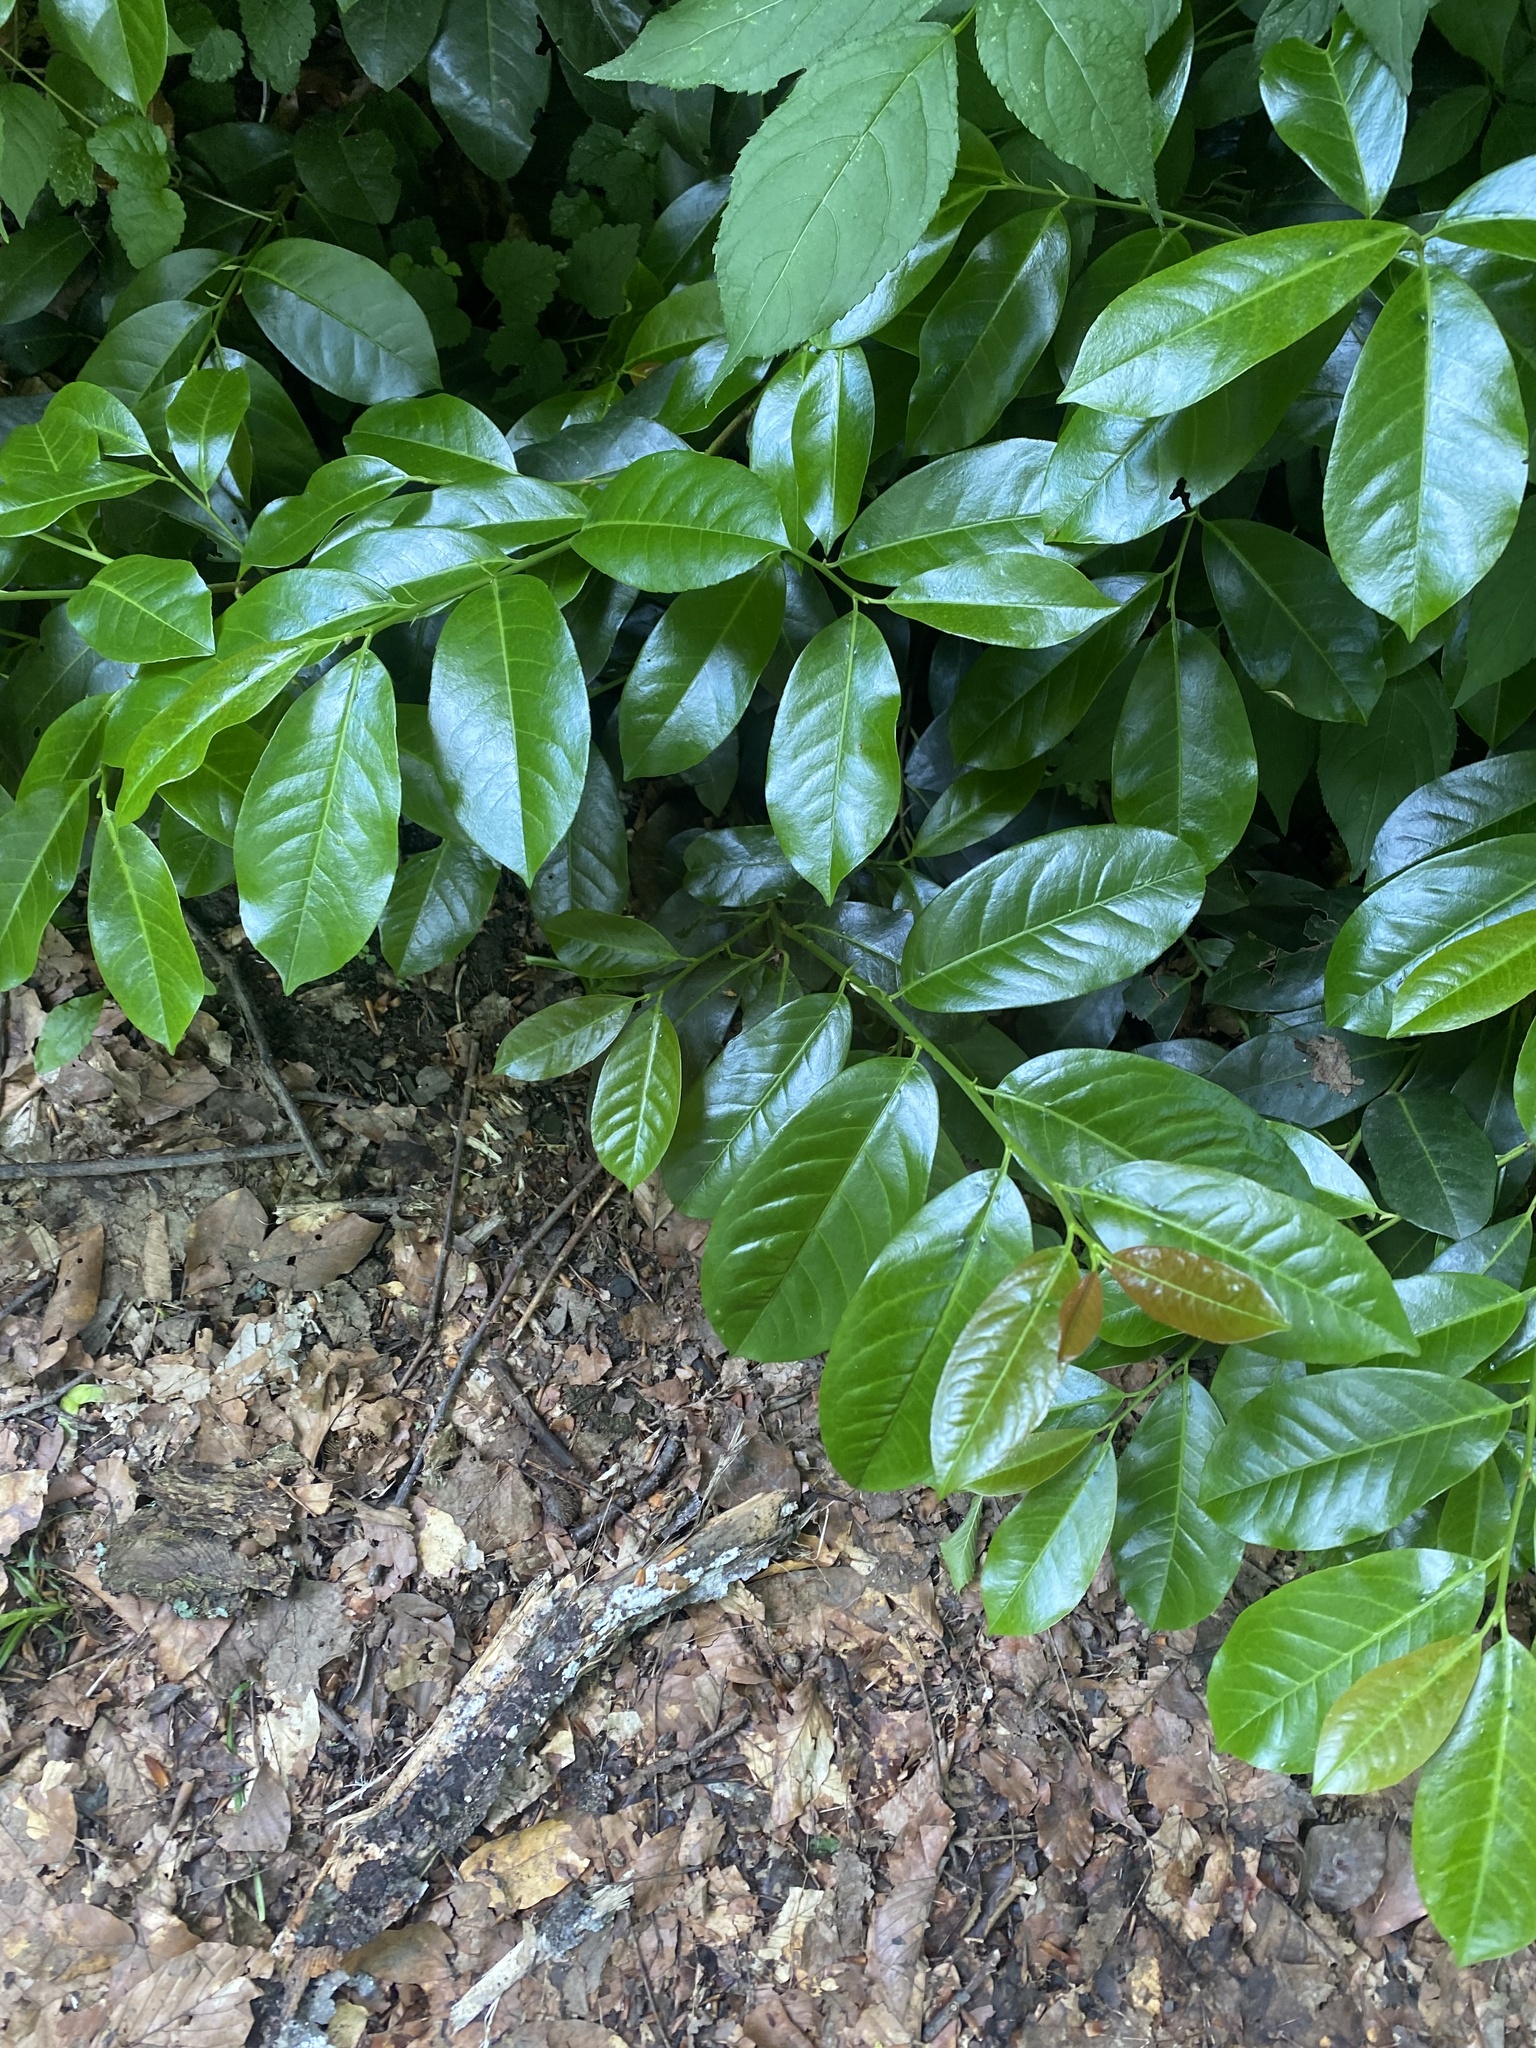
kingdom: Plantae
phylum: Tracheophyta
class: Magnoliopsida
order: Rosales
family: Rosaceae
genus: Prunus
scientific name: Prunus laurocerasus
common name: Cherry laurel
